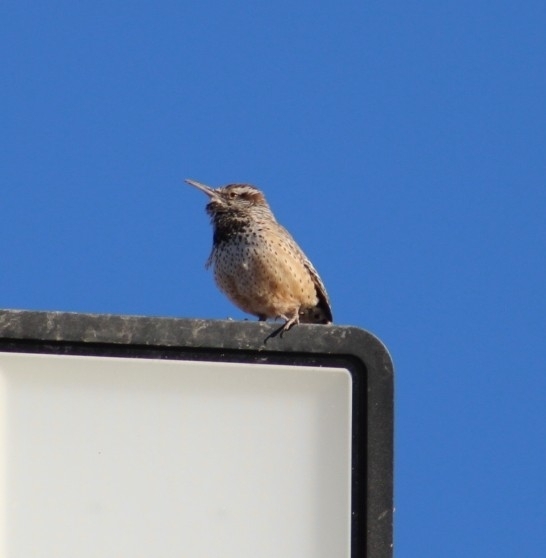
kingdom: Animalia
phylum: Chordata
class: Aves
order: Passeriformes
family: Troglodytidae
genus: Campylorhynchus
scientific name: Campylorhynchus brunneicapillus
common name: Cactus wren
